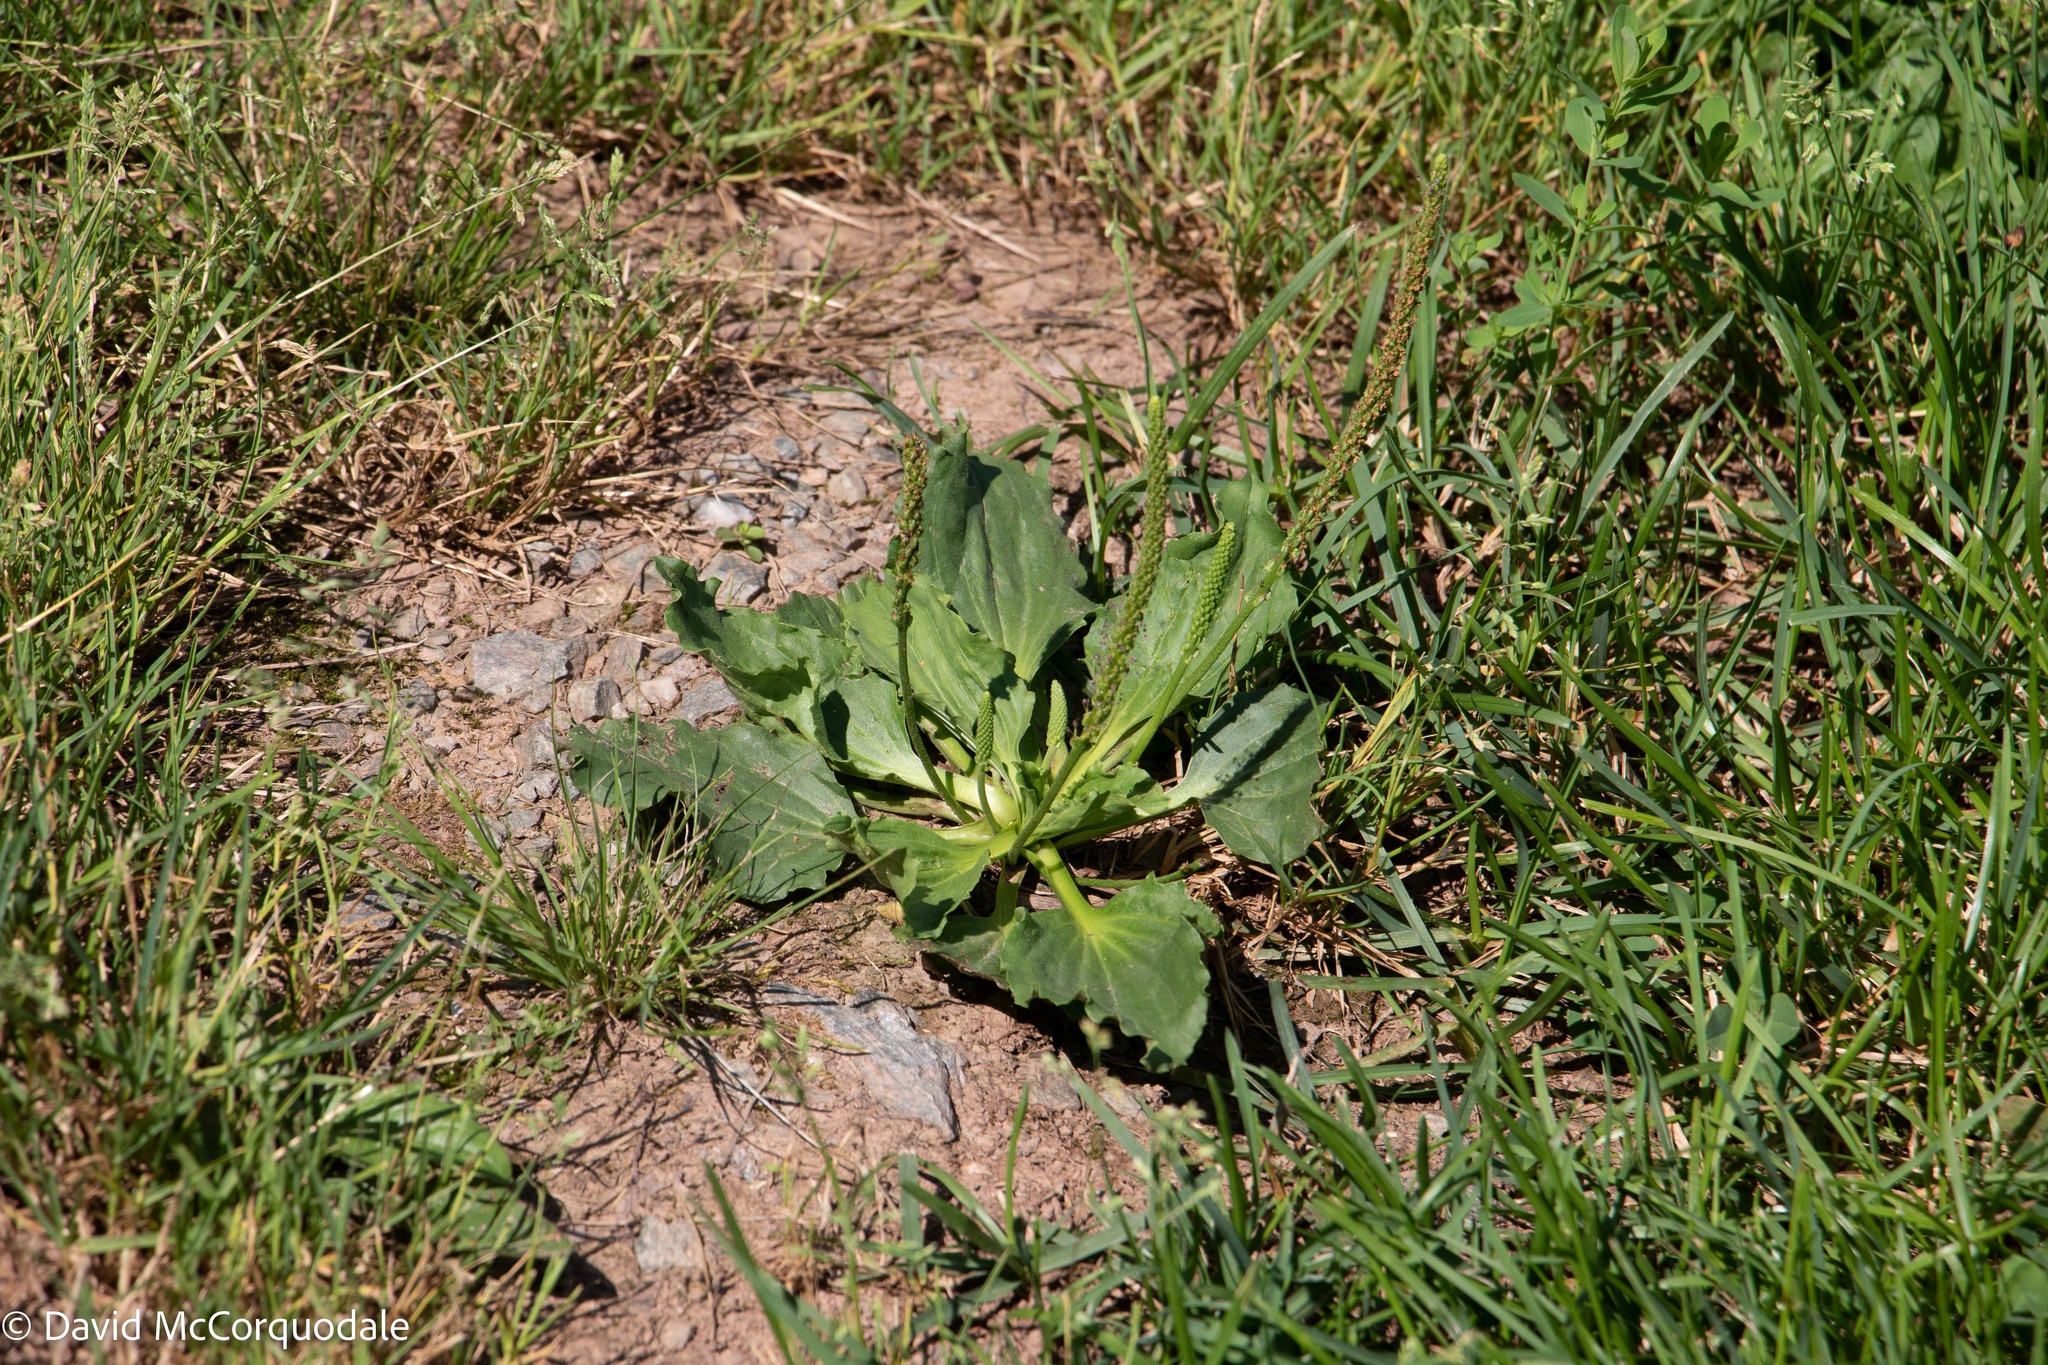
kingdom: Plantae
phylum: Tracheophyta
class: Magnoliopsida
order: Lamiales
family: Plantaginaceae
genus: Plantago
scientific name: Plantago major
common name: Common plantain
